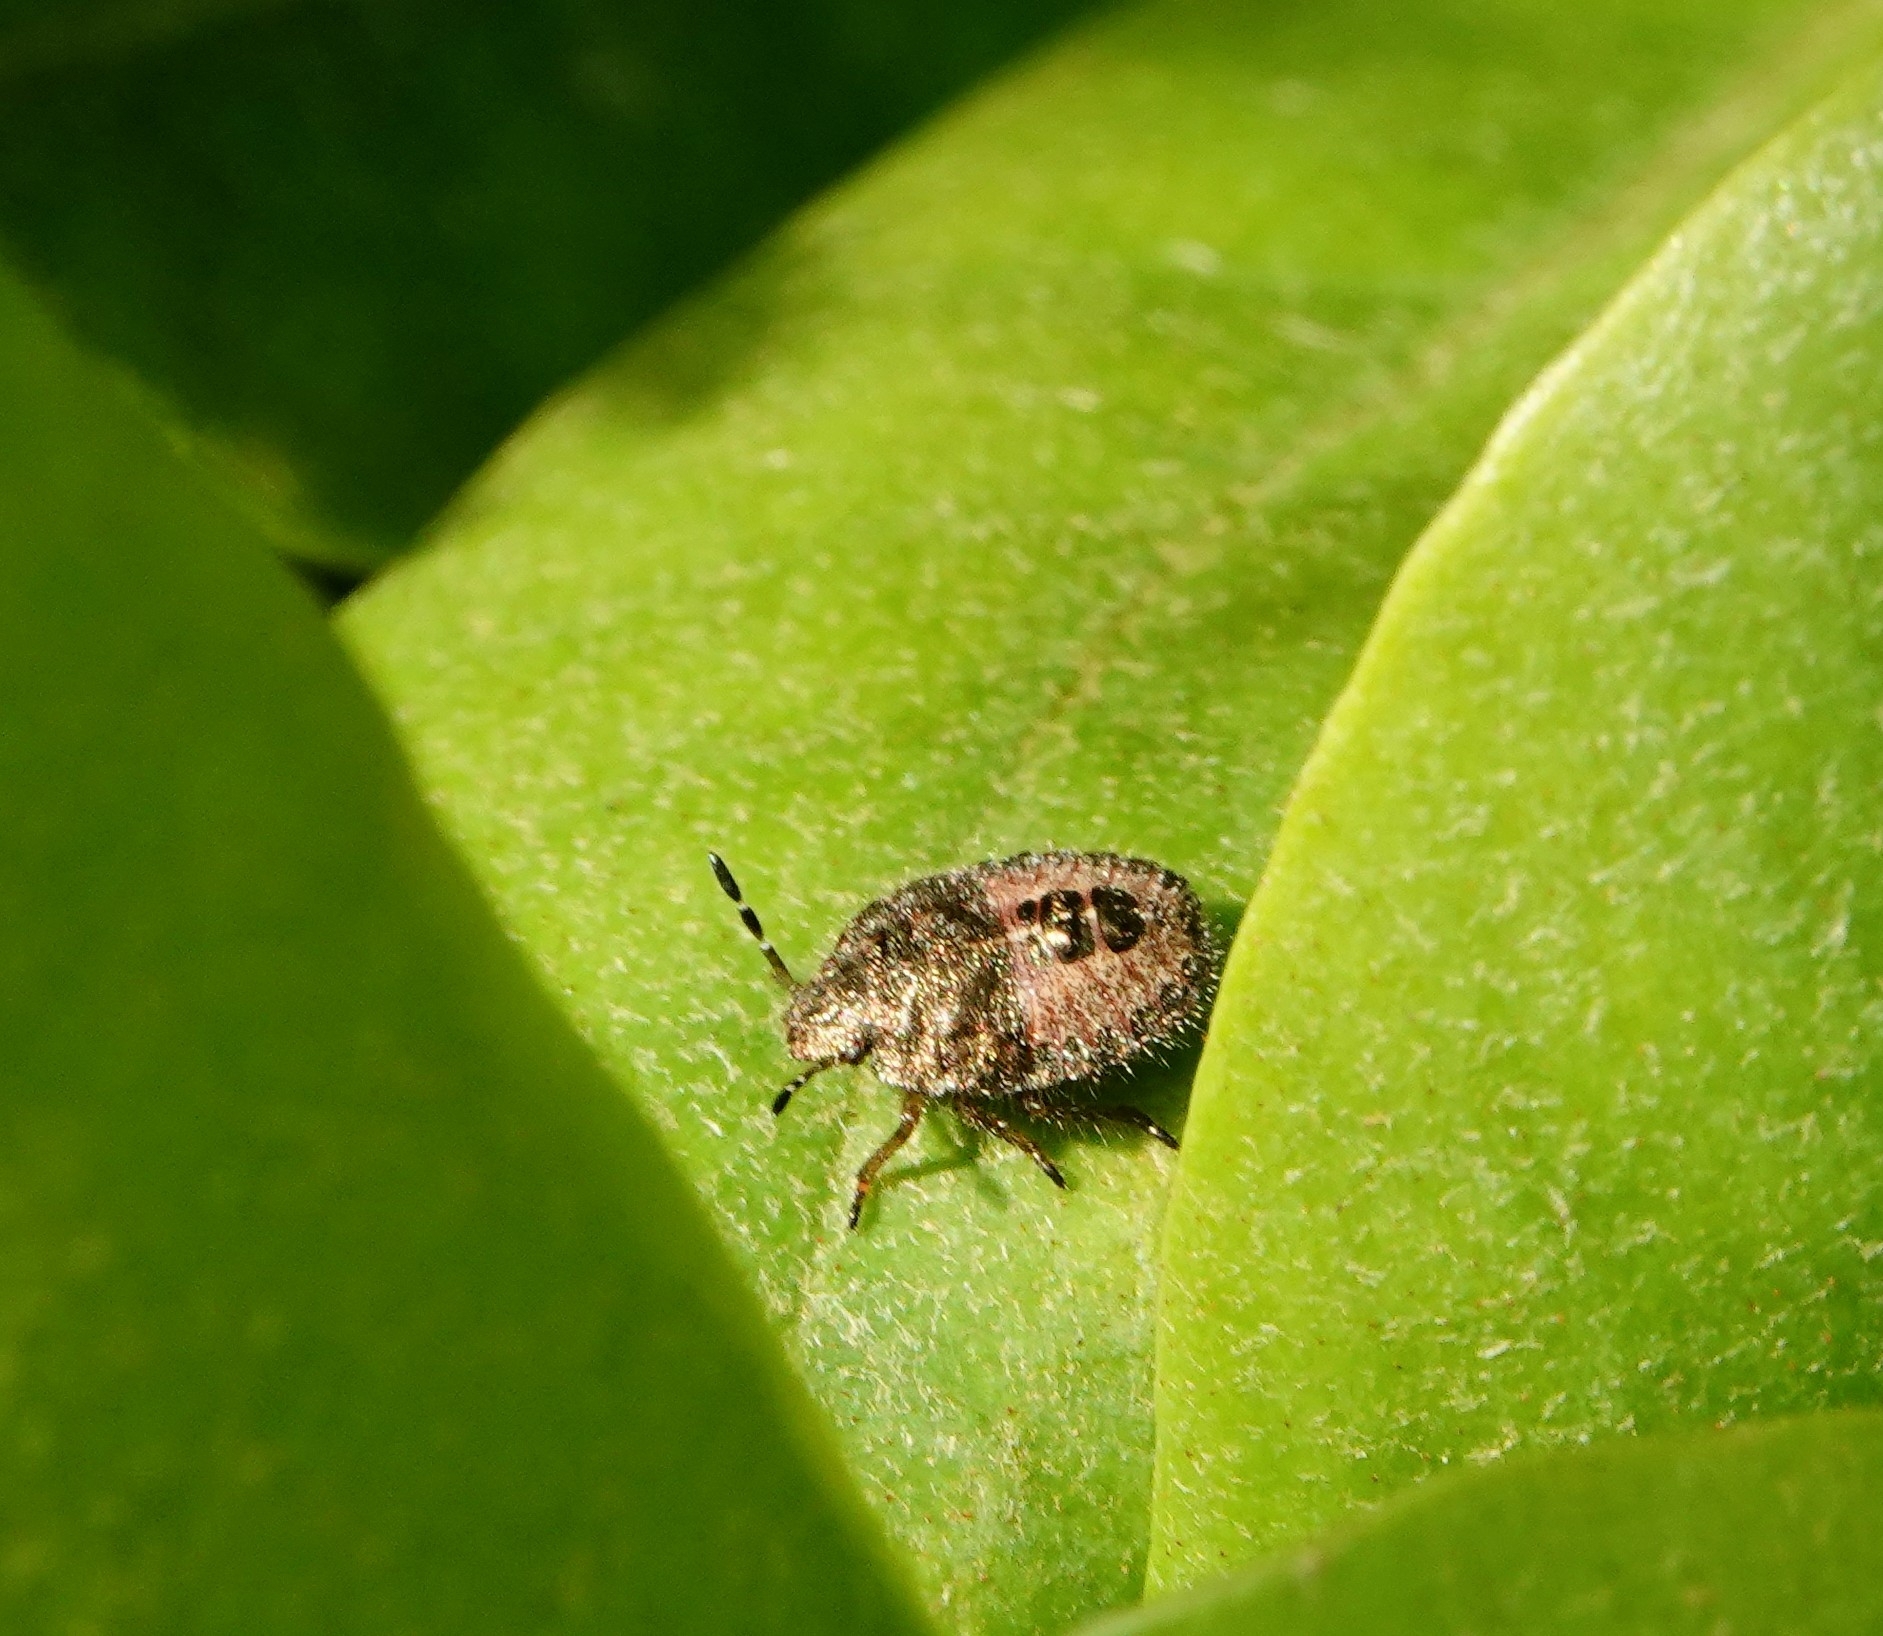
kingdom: Animalia
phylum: Arthropoda
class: Insecta
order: Hemiptera
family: Pentatomidae
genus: Dolycoris
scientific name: Dolycoris baccarum
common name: Sloe bug
